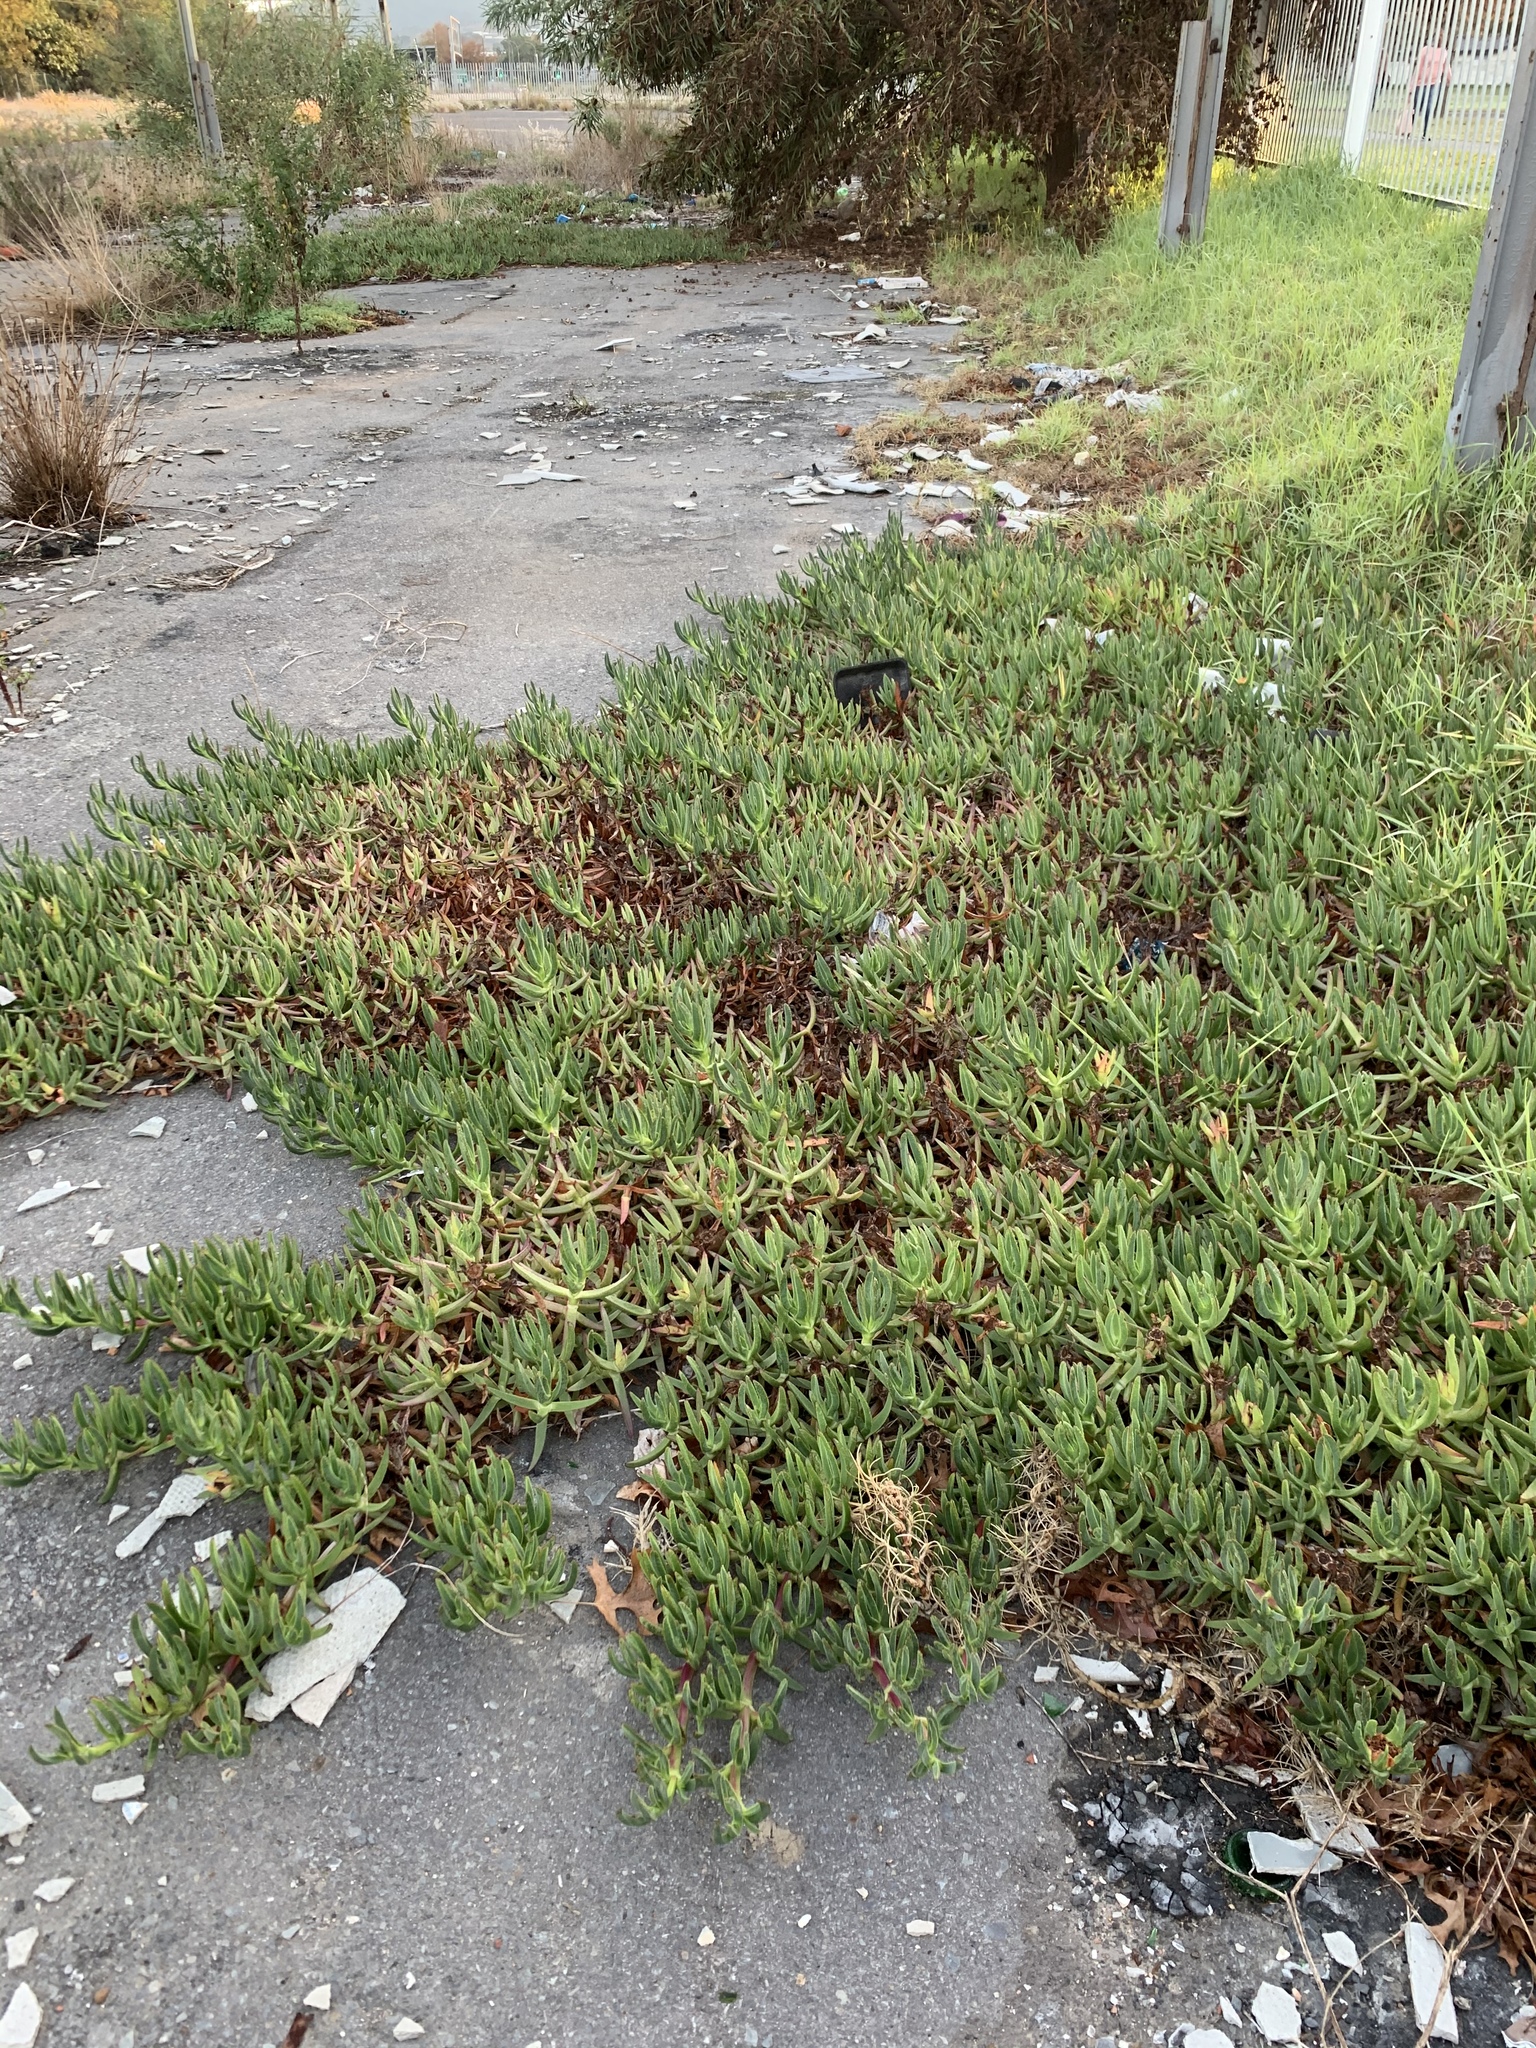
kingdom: Plantae
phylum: Tracheophyta
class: Magnoliopsida
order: Caryophyllales
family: Aizoaceae
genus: Carpobrotus
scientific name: Carpobrotus edulis
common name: Hottentot-fig
